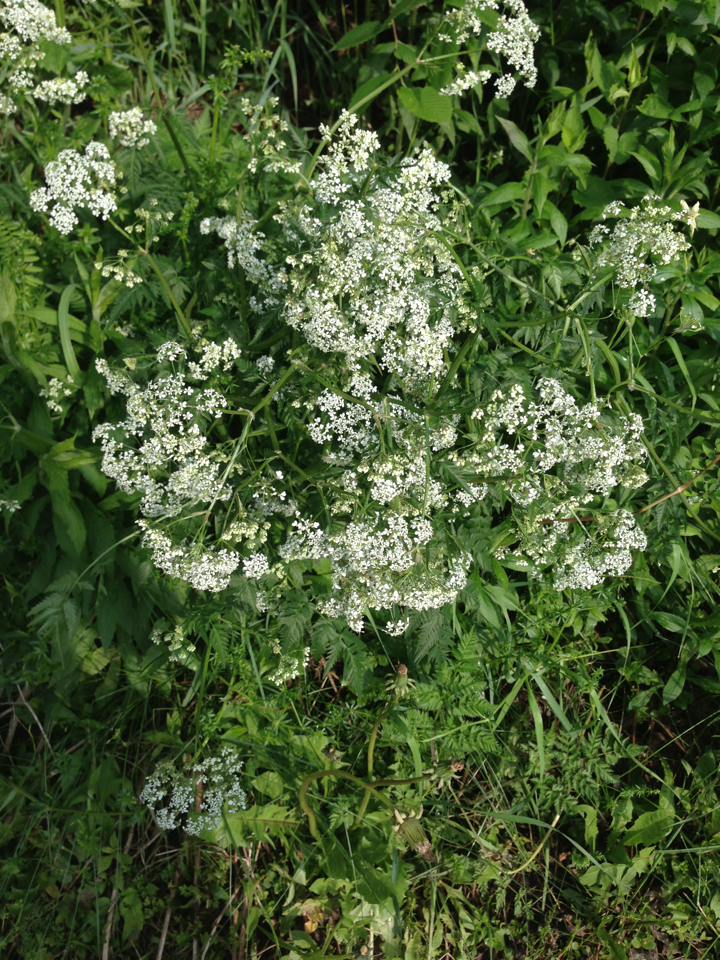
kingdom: Plantae
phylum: Tracheophyta
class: Magnoliopsida
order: Apiales
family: Apiaceae
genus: Anthriscus
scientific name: Anthriscus sylvestris
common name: Cow parsley
